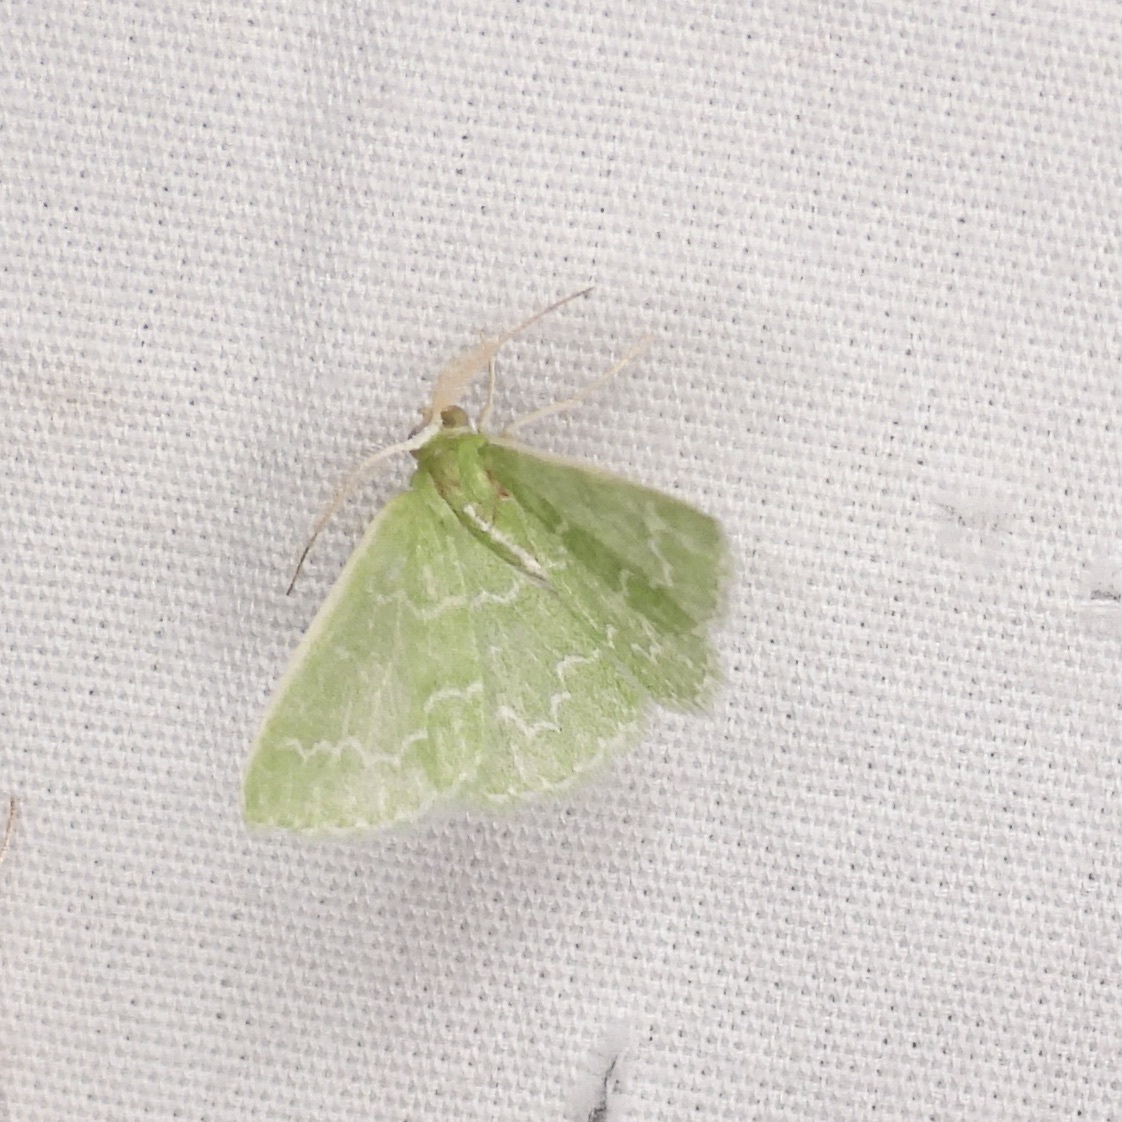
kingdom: Animalia
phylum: Arthropoda
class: Insecta
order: Lepidoptera
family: Geometridae
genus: Synchlora
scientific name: Synchlora frondaria
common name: Southern emerald
